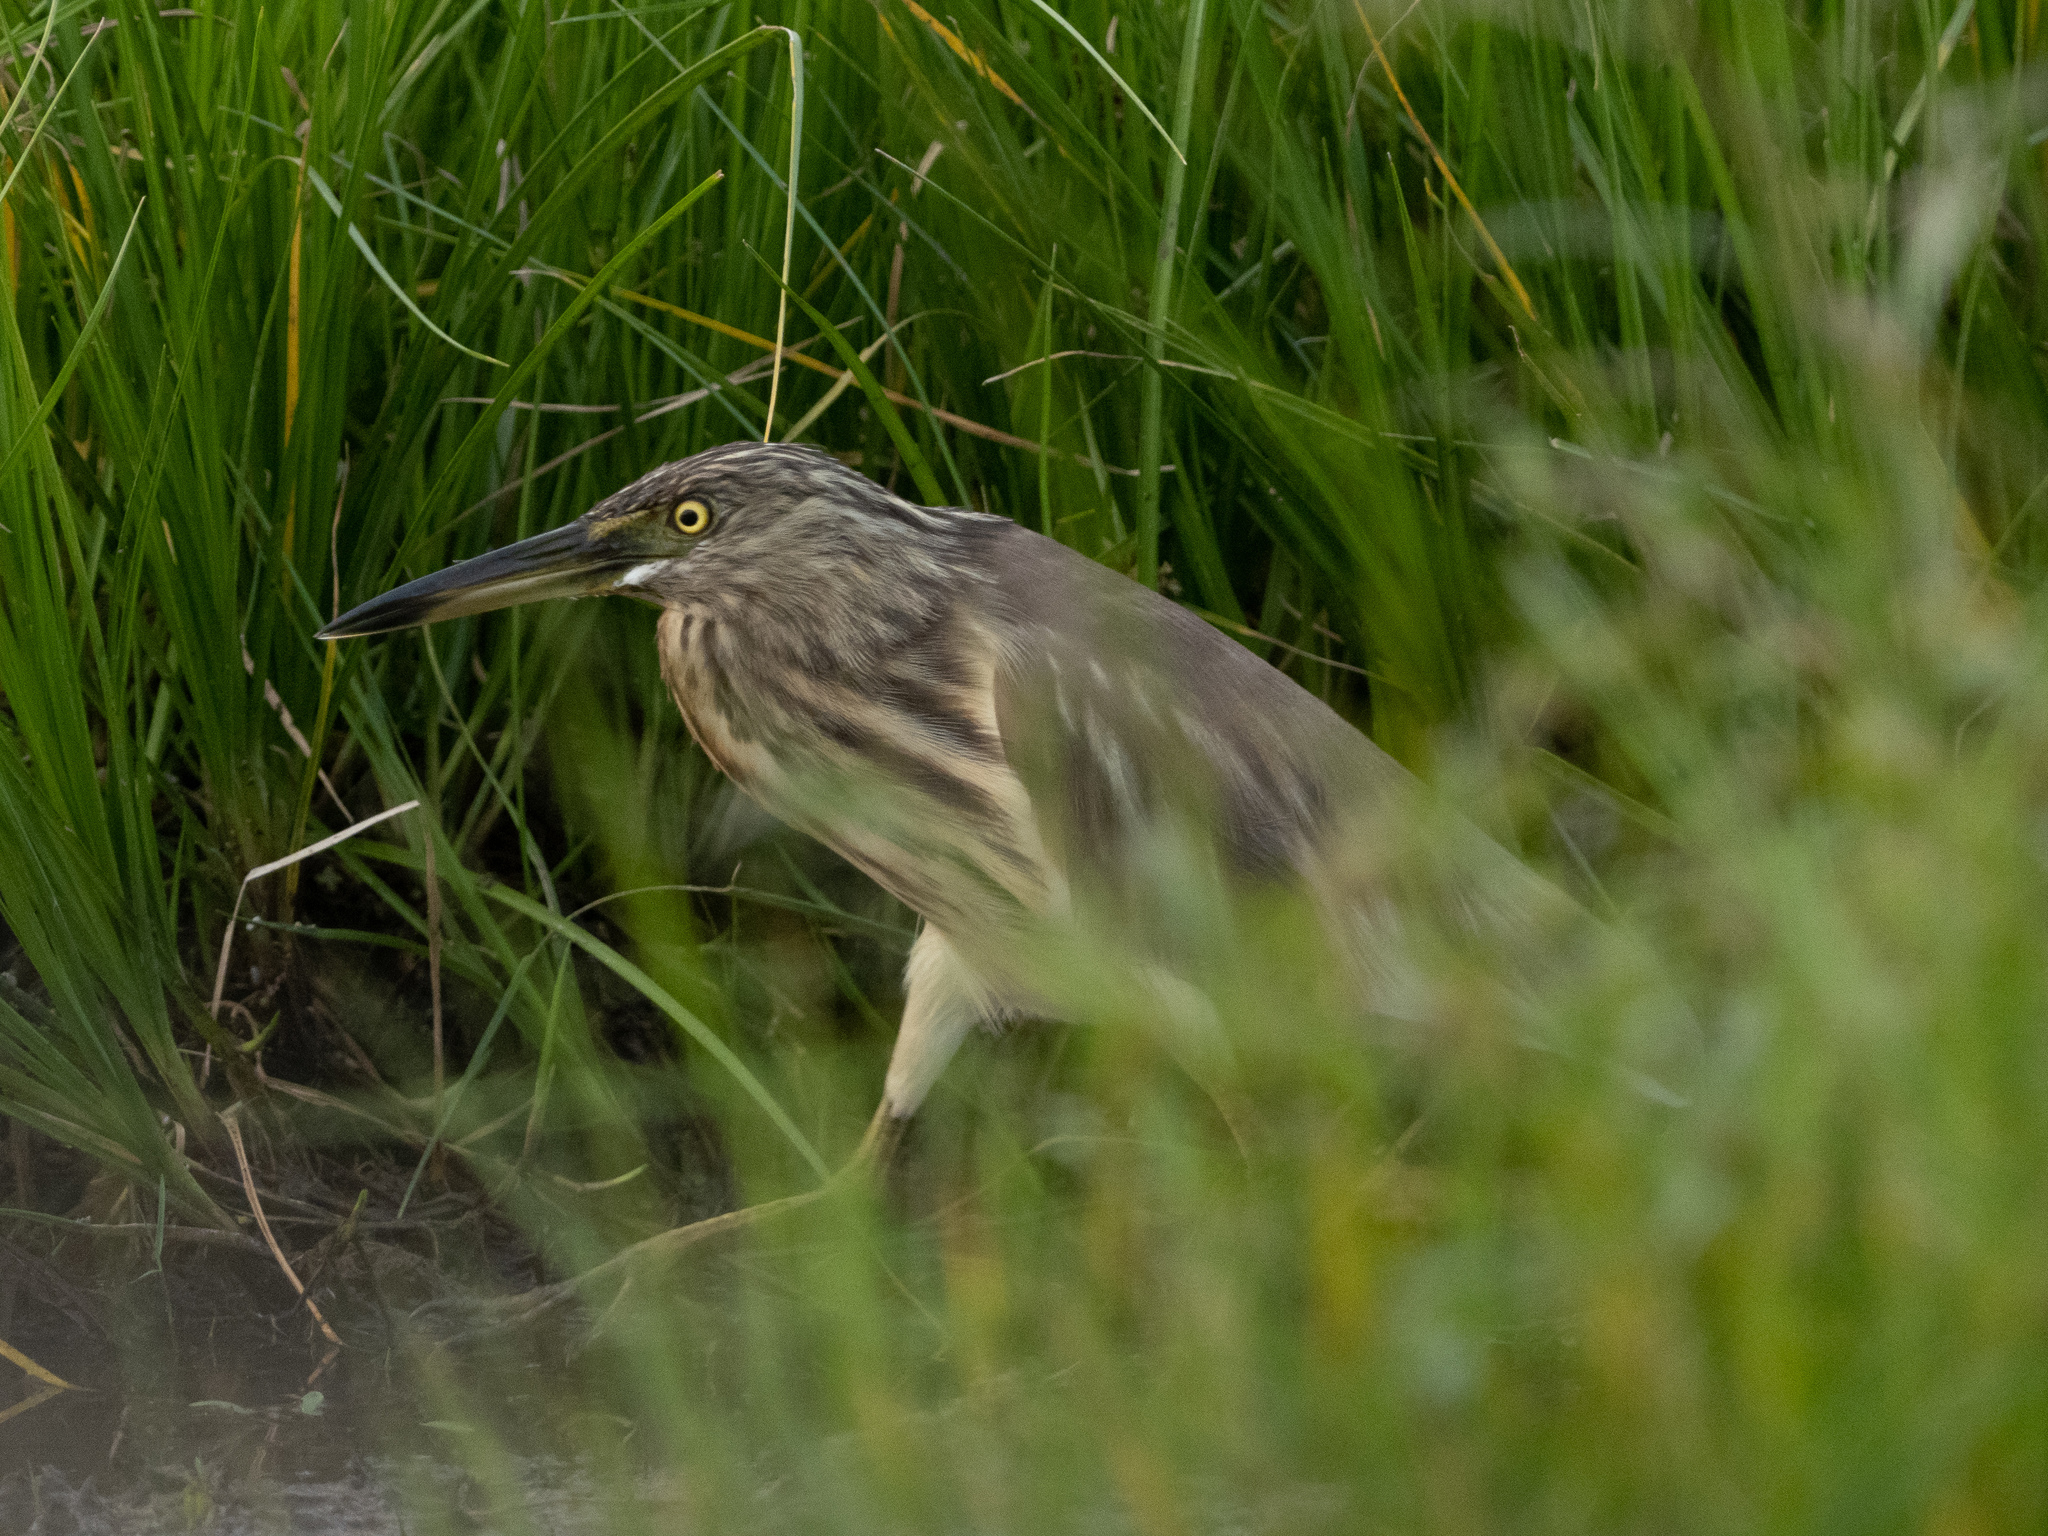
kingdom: Animalia
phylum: Chordata
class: Aves
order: Pelecaniformes
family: Ardeidae
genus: Ardeola
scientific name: Ardeola grayii
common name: Indian pond heron
